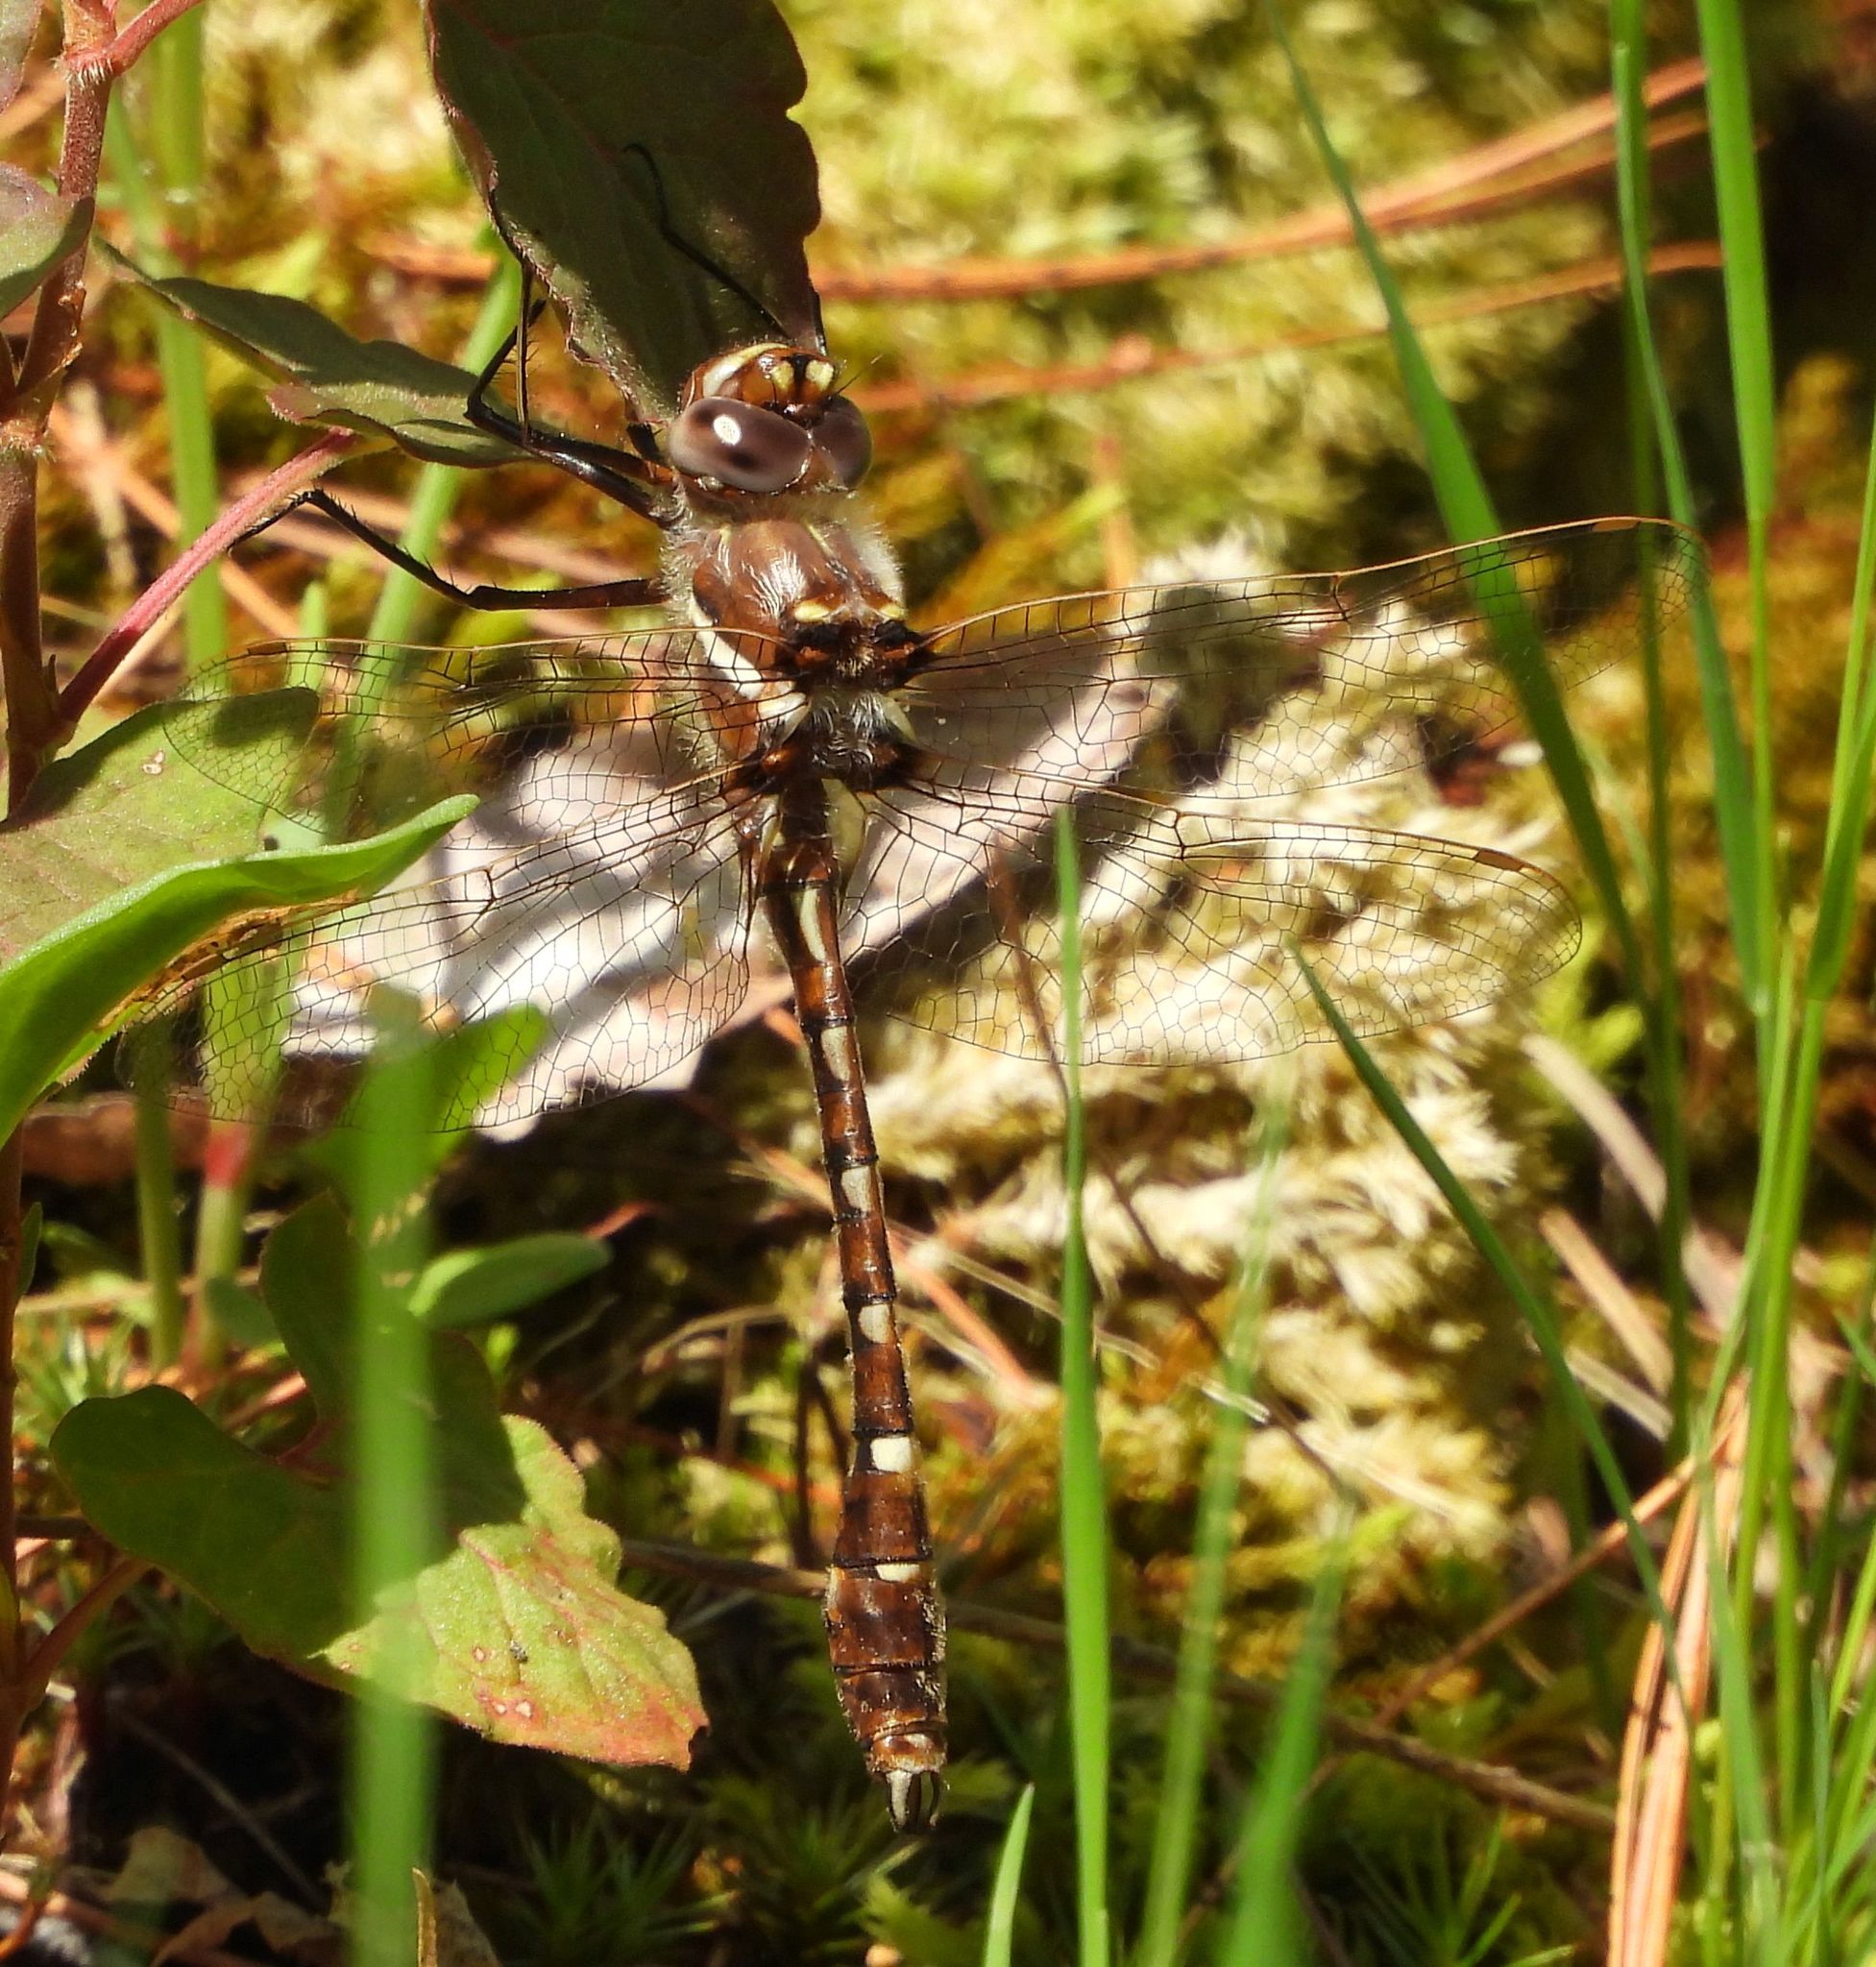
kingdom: Animalia
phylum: Arthropoda
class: Insecta
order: Odonata
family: Macromiidae
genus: Didymops
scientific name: Didymops transversa
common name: Stream cruiser
